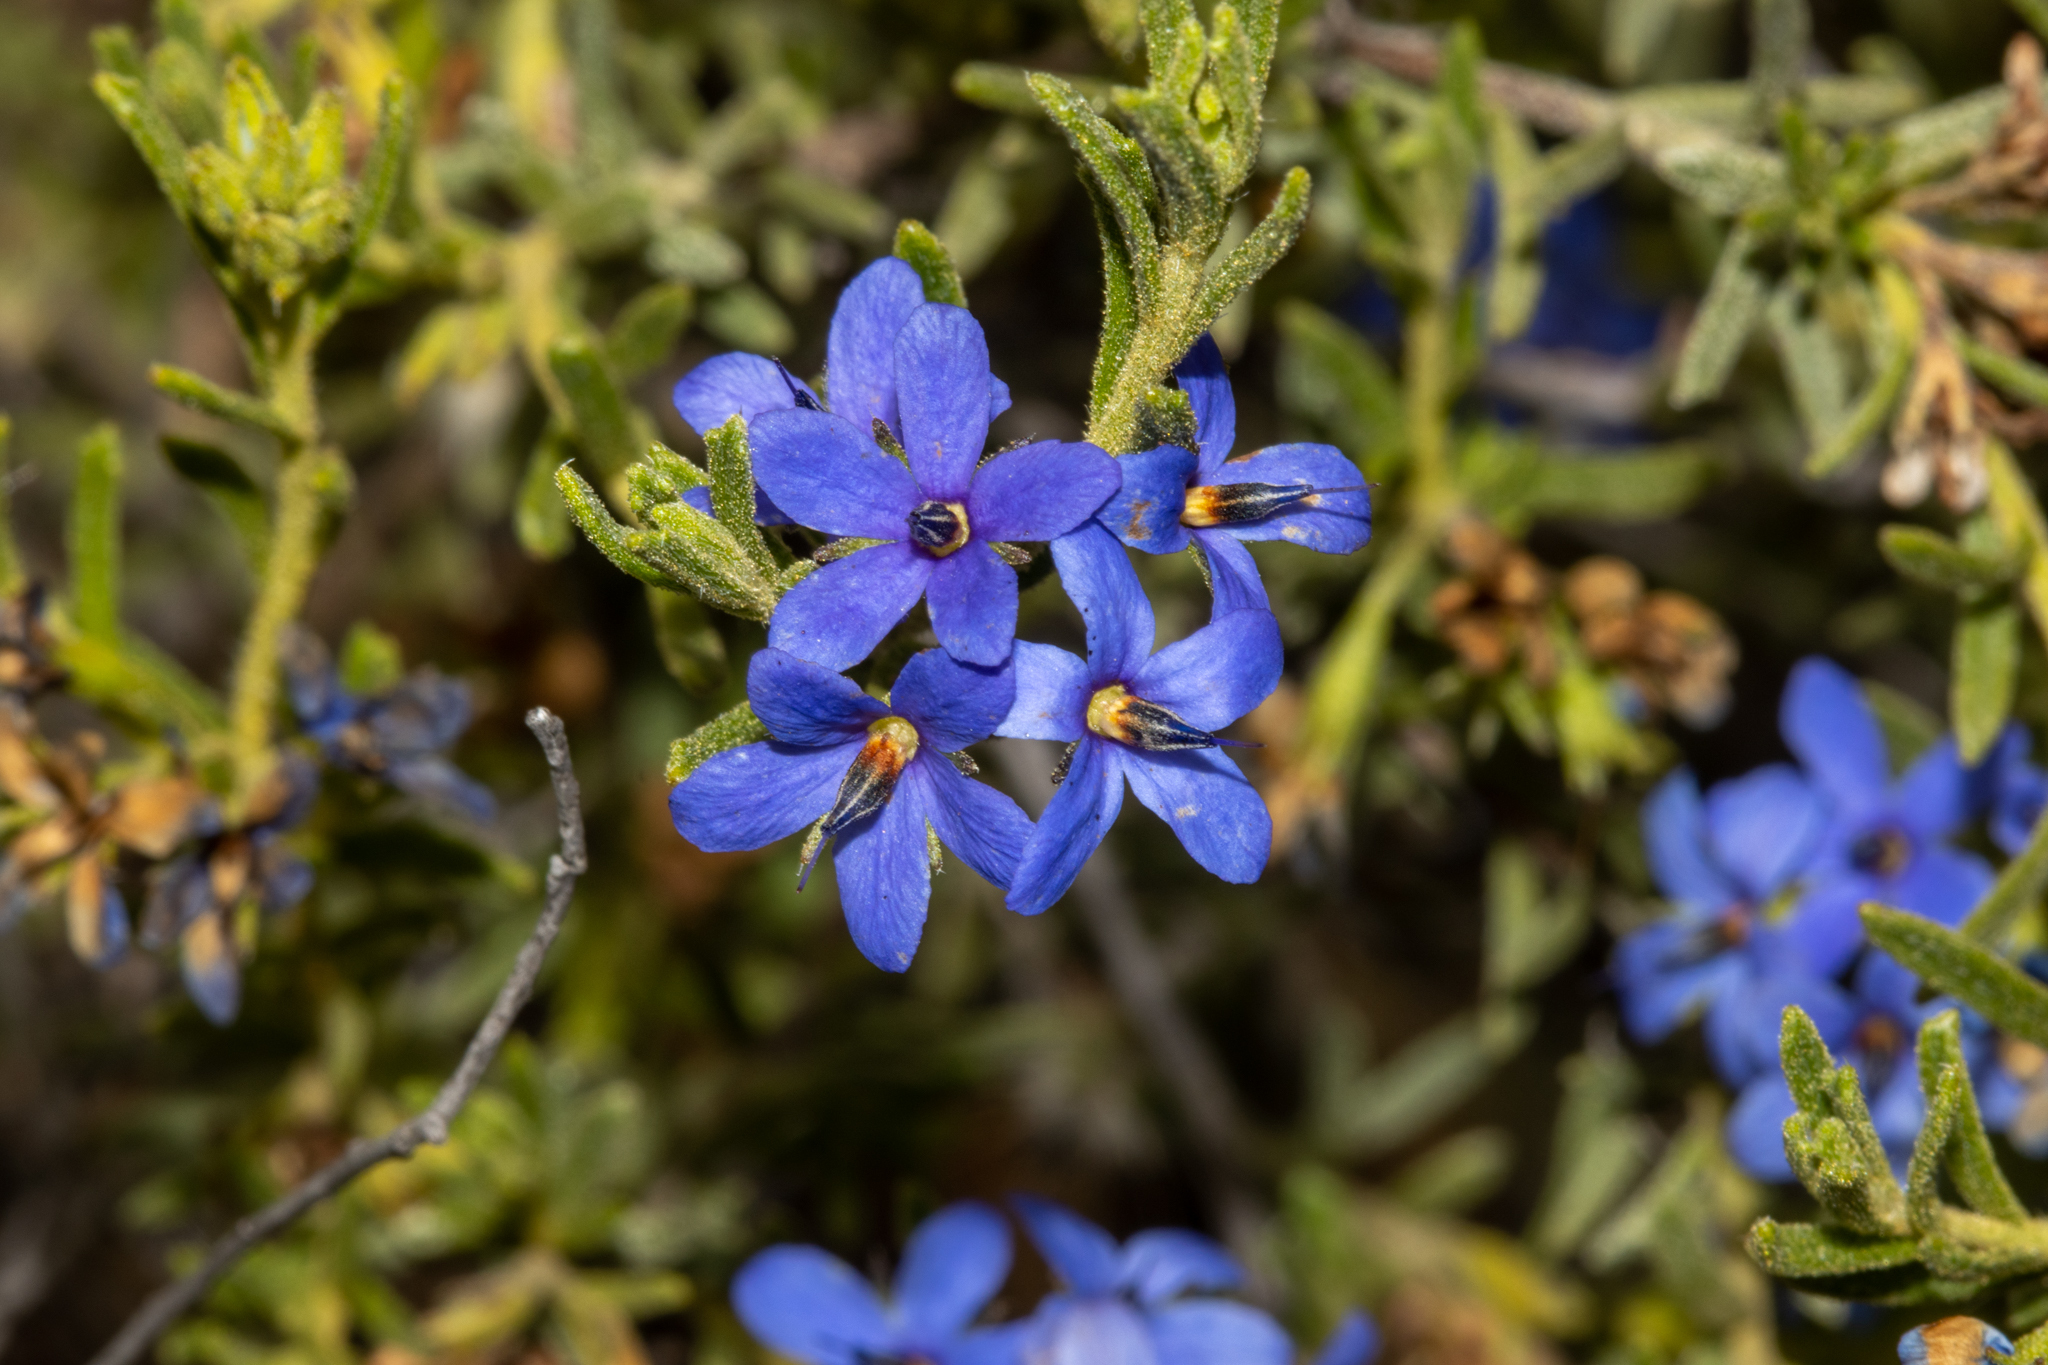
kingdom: Plantae
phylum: Tracheophyta
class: Magnoliopsida
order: Boraginales
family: Ehretiaceae
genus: Halgania
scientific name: Halgania cyanea
